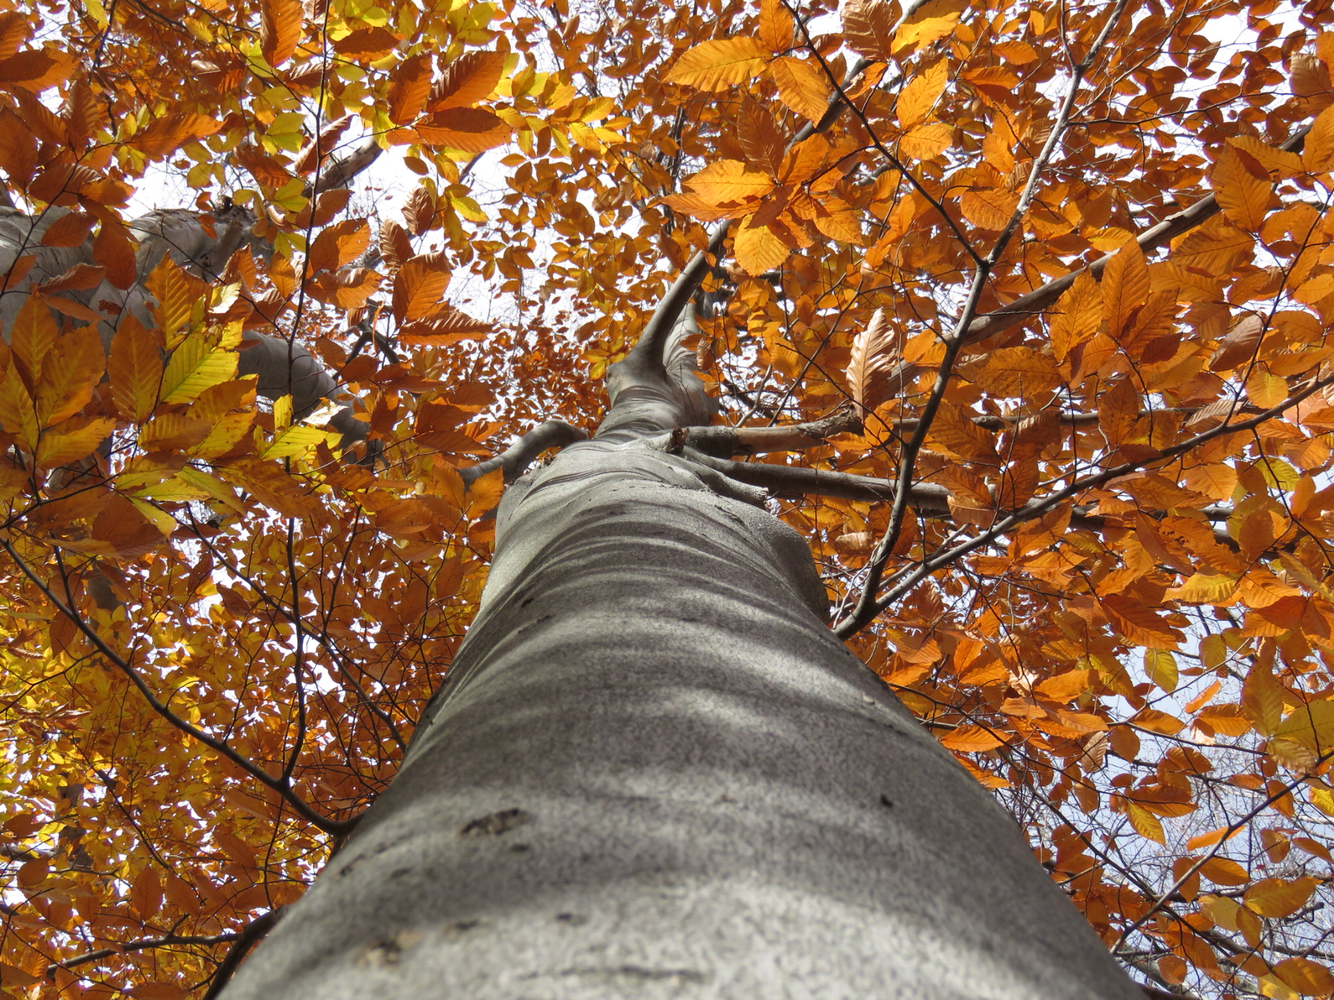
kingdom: Plantae
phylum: Tracheophyta
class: Magnoliopsida
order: Fagales
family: Fagaceae
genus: Fagus
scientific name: Fagus grandifolia
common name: American beech
